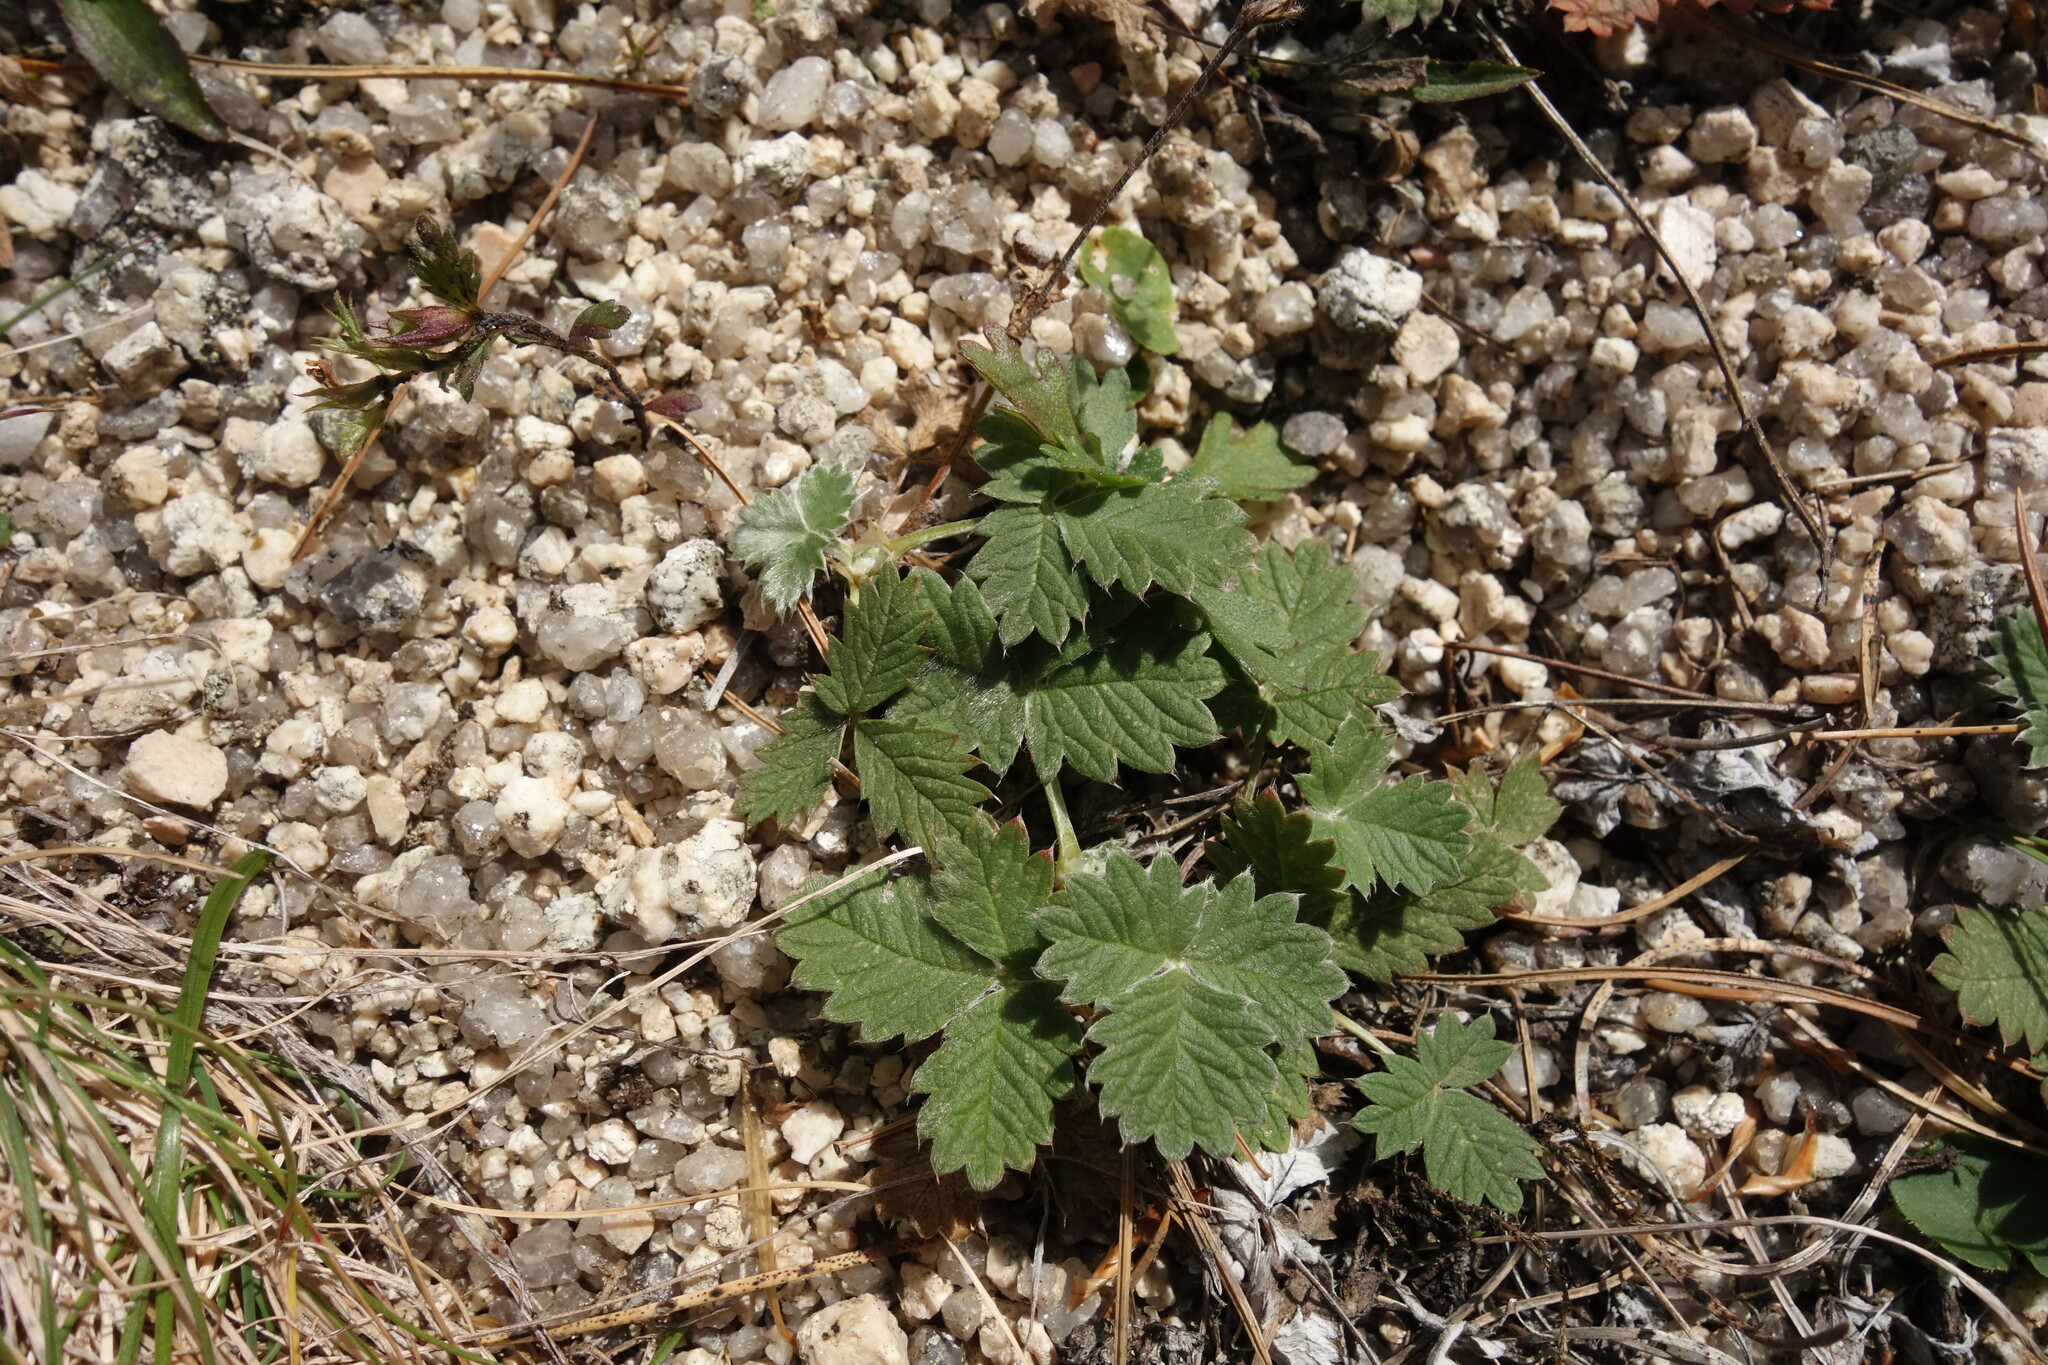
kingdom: Plantae
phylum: Tracheophyta
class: Magnoliopsida
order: Rosales
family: Rosaceae
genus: Potentilla
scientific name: Potentilla nivea
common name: Snow cinquefoil
